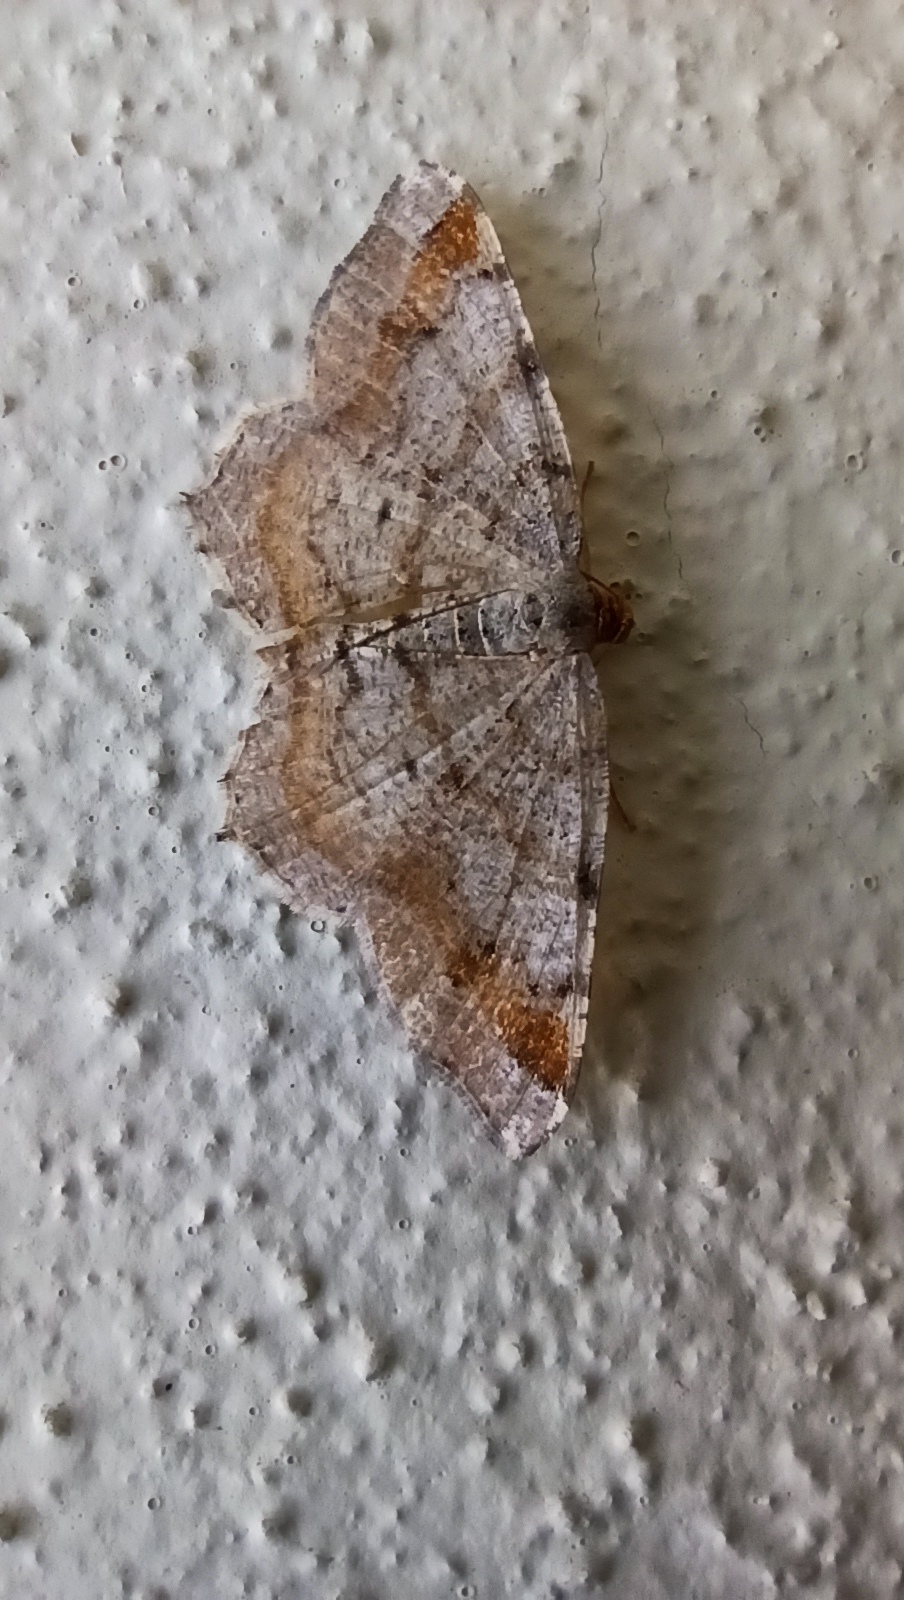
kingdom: Animalia
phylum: Arthropoda
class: Insecta
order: Lepidoptera
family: Geometridae
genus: Macaria
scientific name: Macaria liturata
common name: Tawny-barred angle
